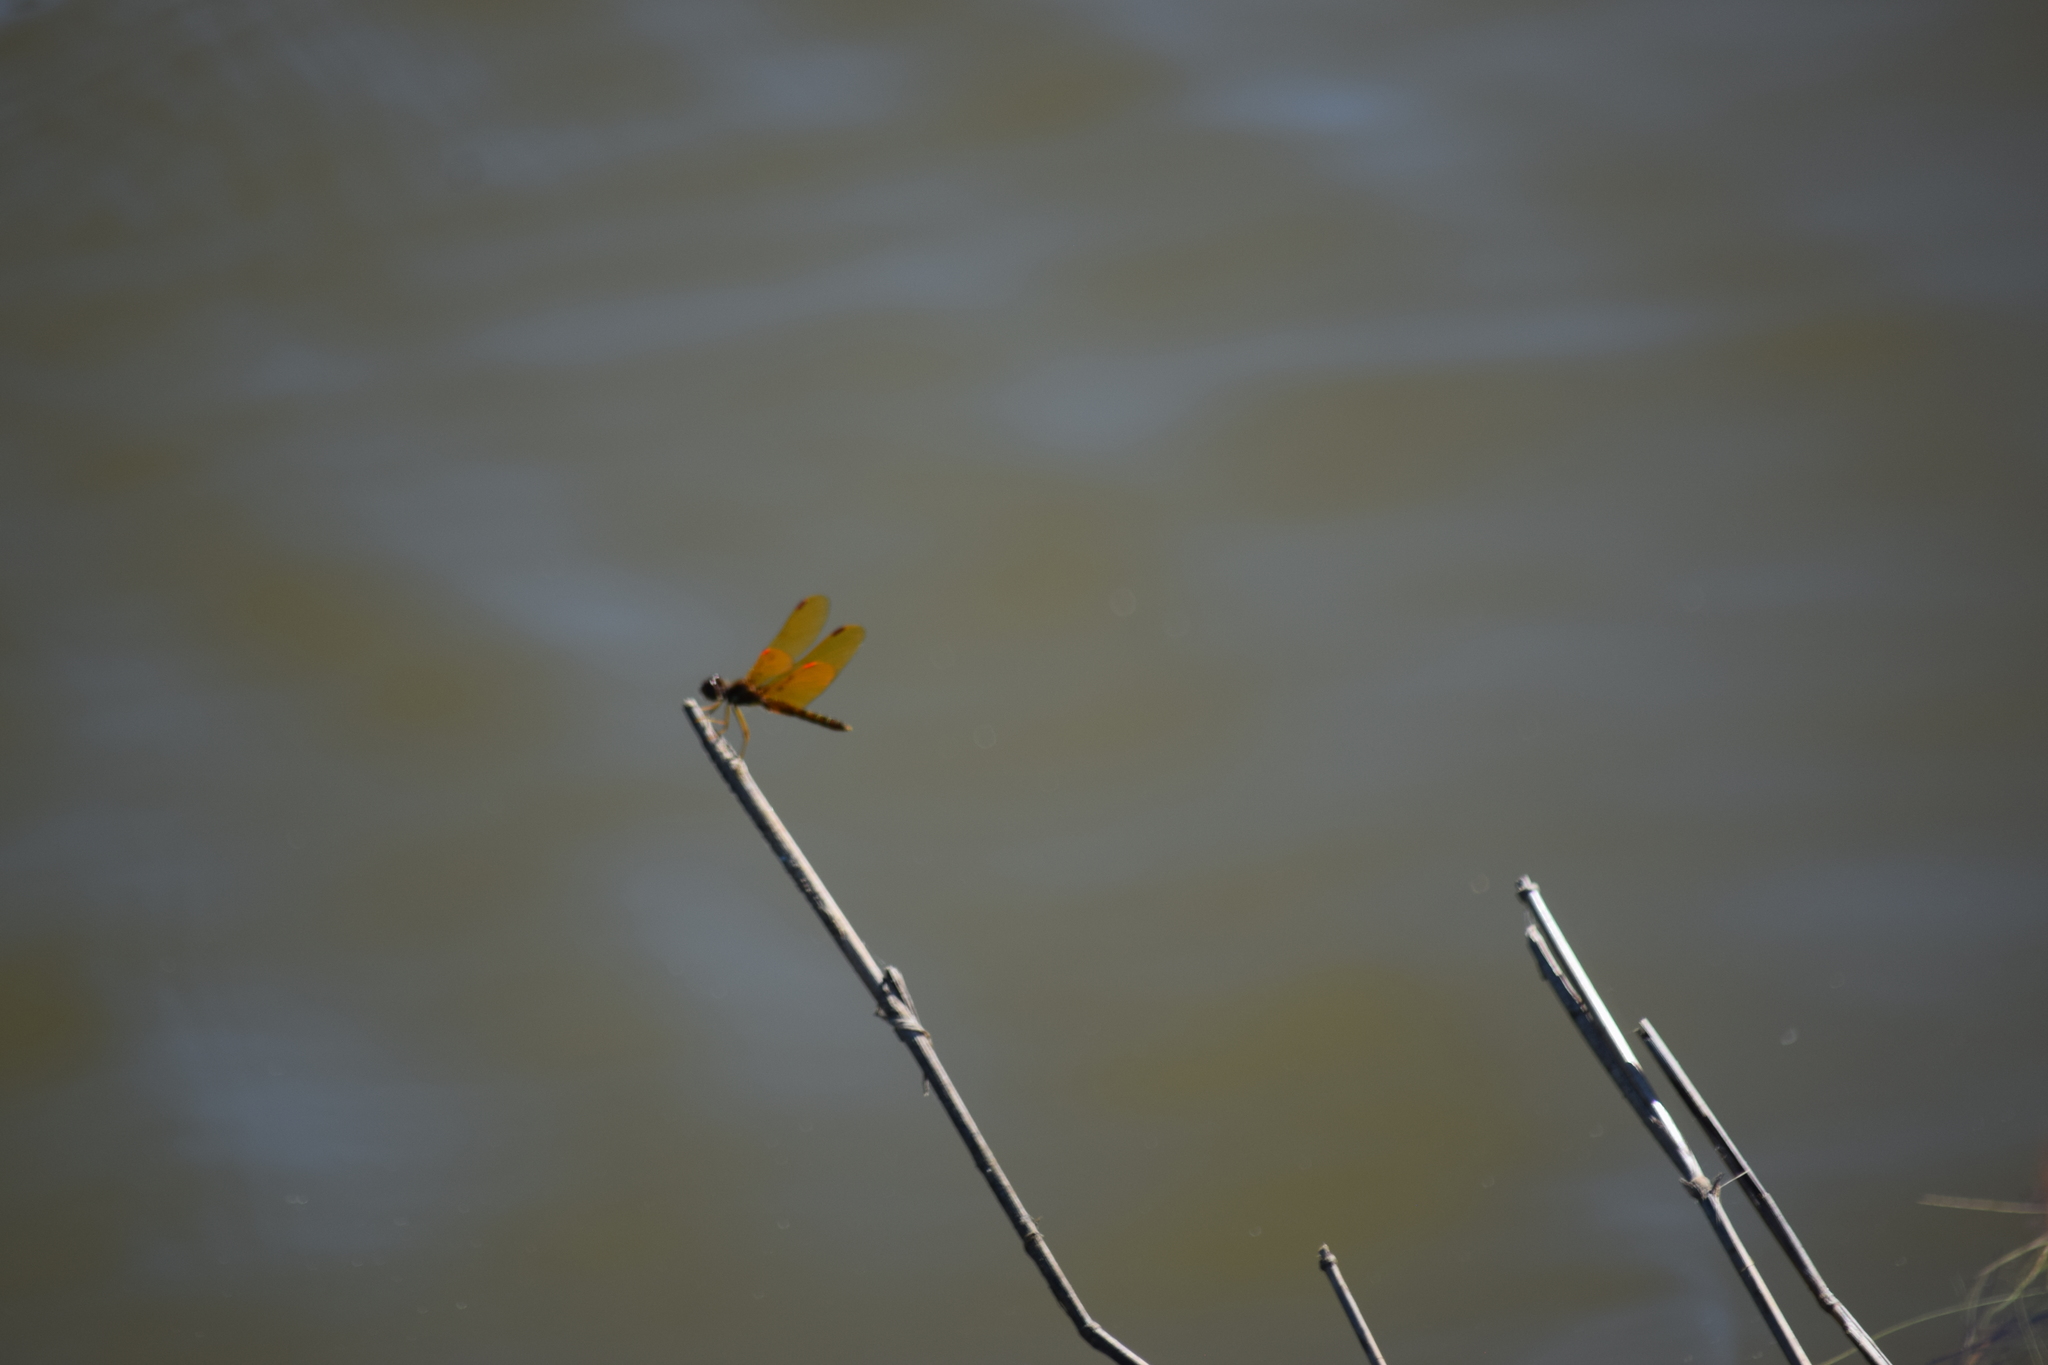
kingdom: Animalia
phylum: Arthropoda
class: Insecta
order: Odonata
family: Libellulidae
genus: Perithemis
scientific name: Perithemis tenera
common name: Eastern amberwing
